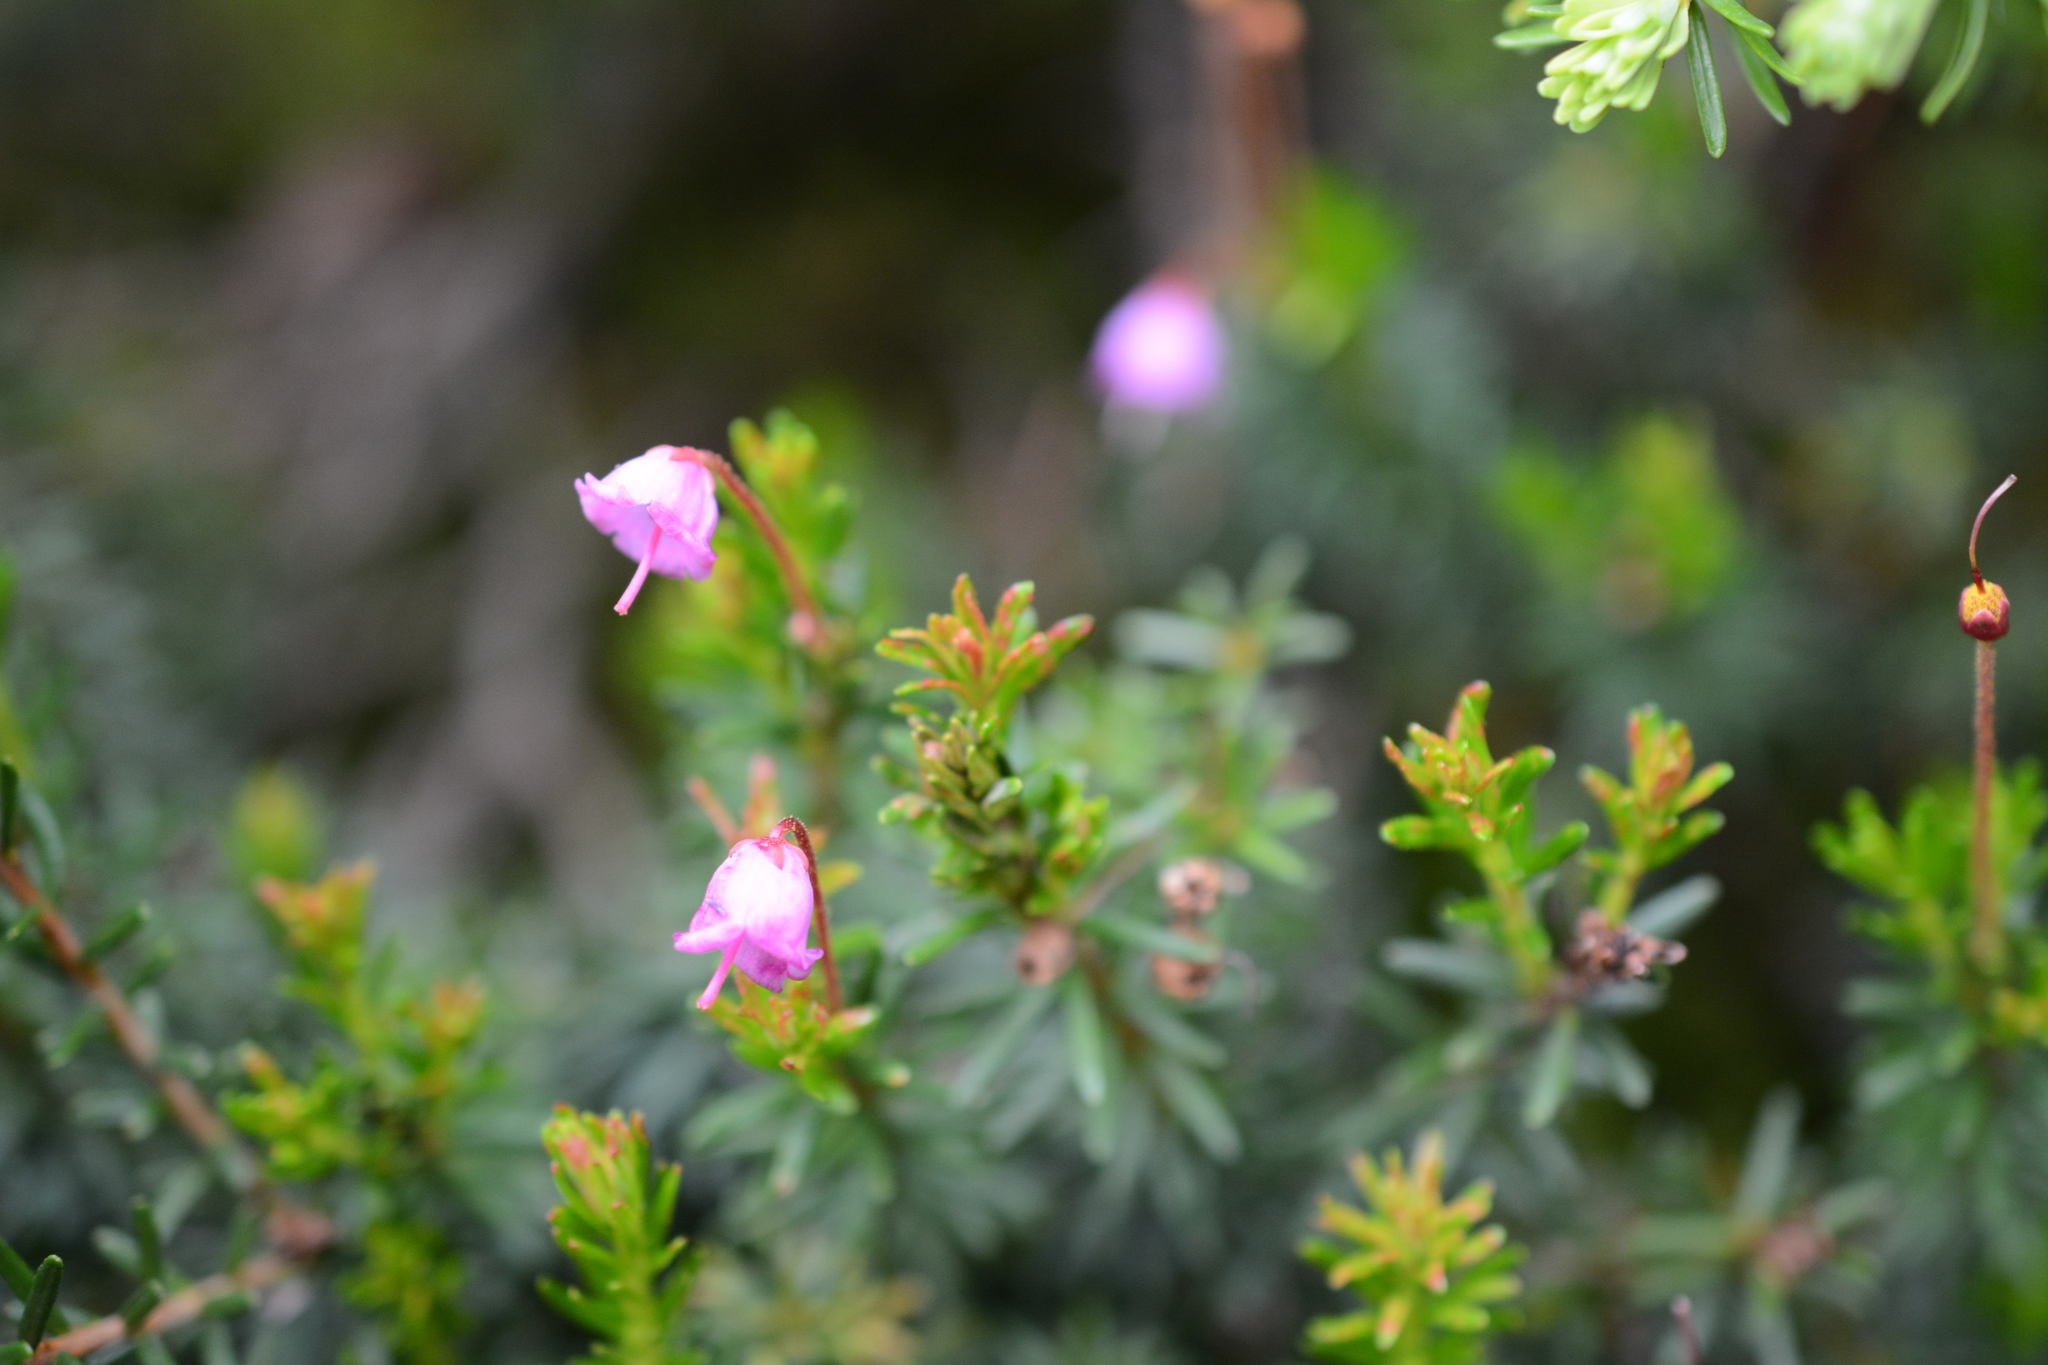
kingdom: Plantae
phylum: Tracheophyta
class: Magnoliopsida
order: Ericales
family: Ericaceae
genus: Phyllodoce
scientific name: Phyllodoce empetriformis
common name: Pink mountain heather
